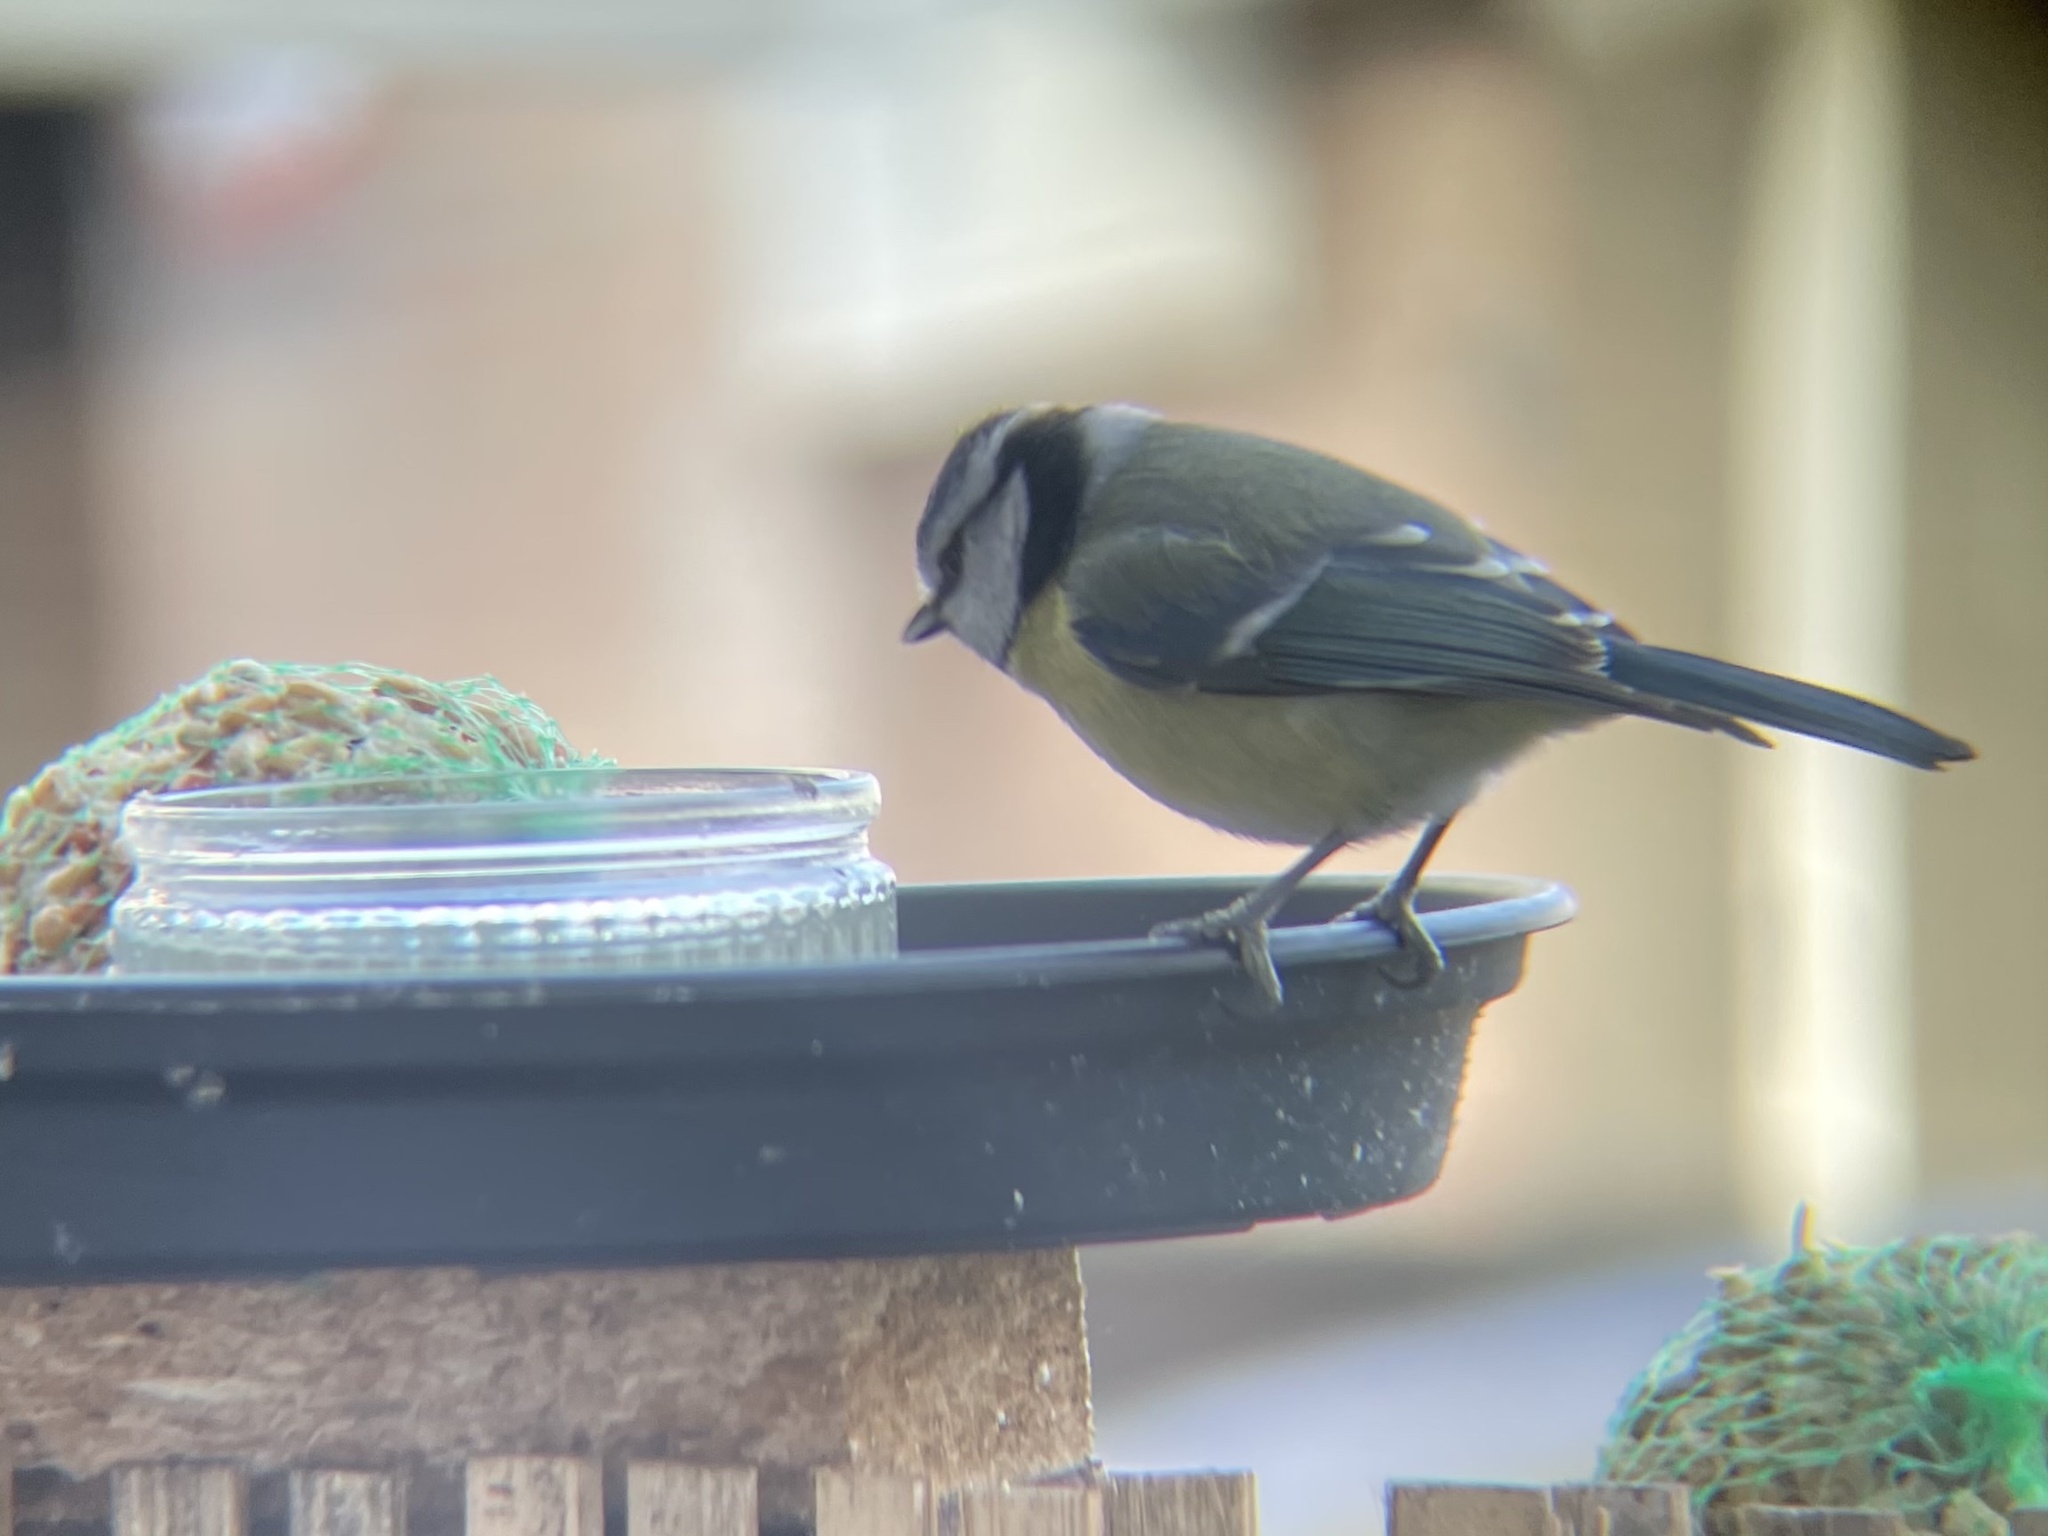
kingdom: Animalia
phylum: Chordata
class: Aves
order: Passeriformes
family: Paridae
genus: Cyanistes
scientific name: Cyanistes caeruleus
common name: Eurasian blue tit
